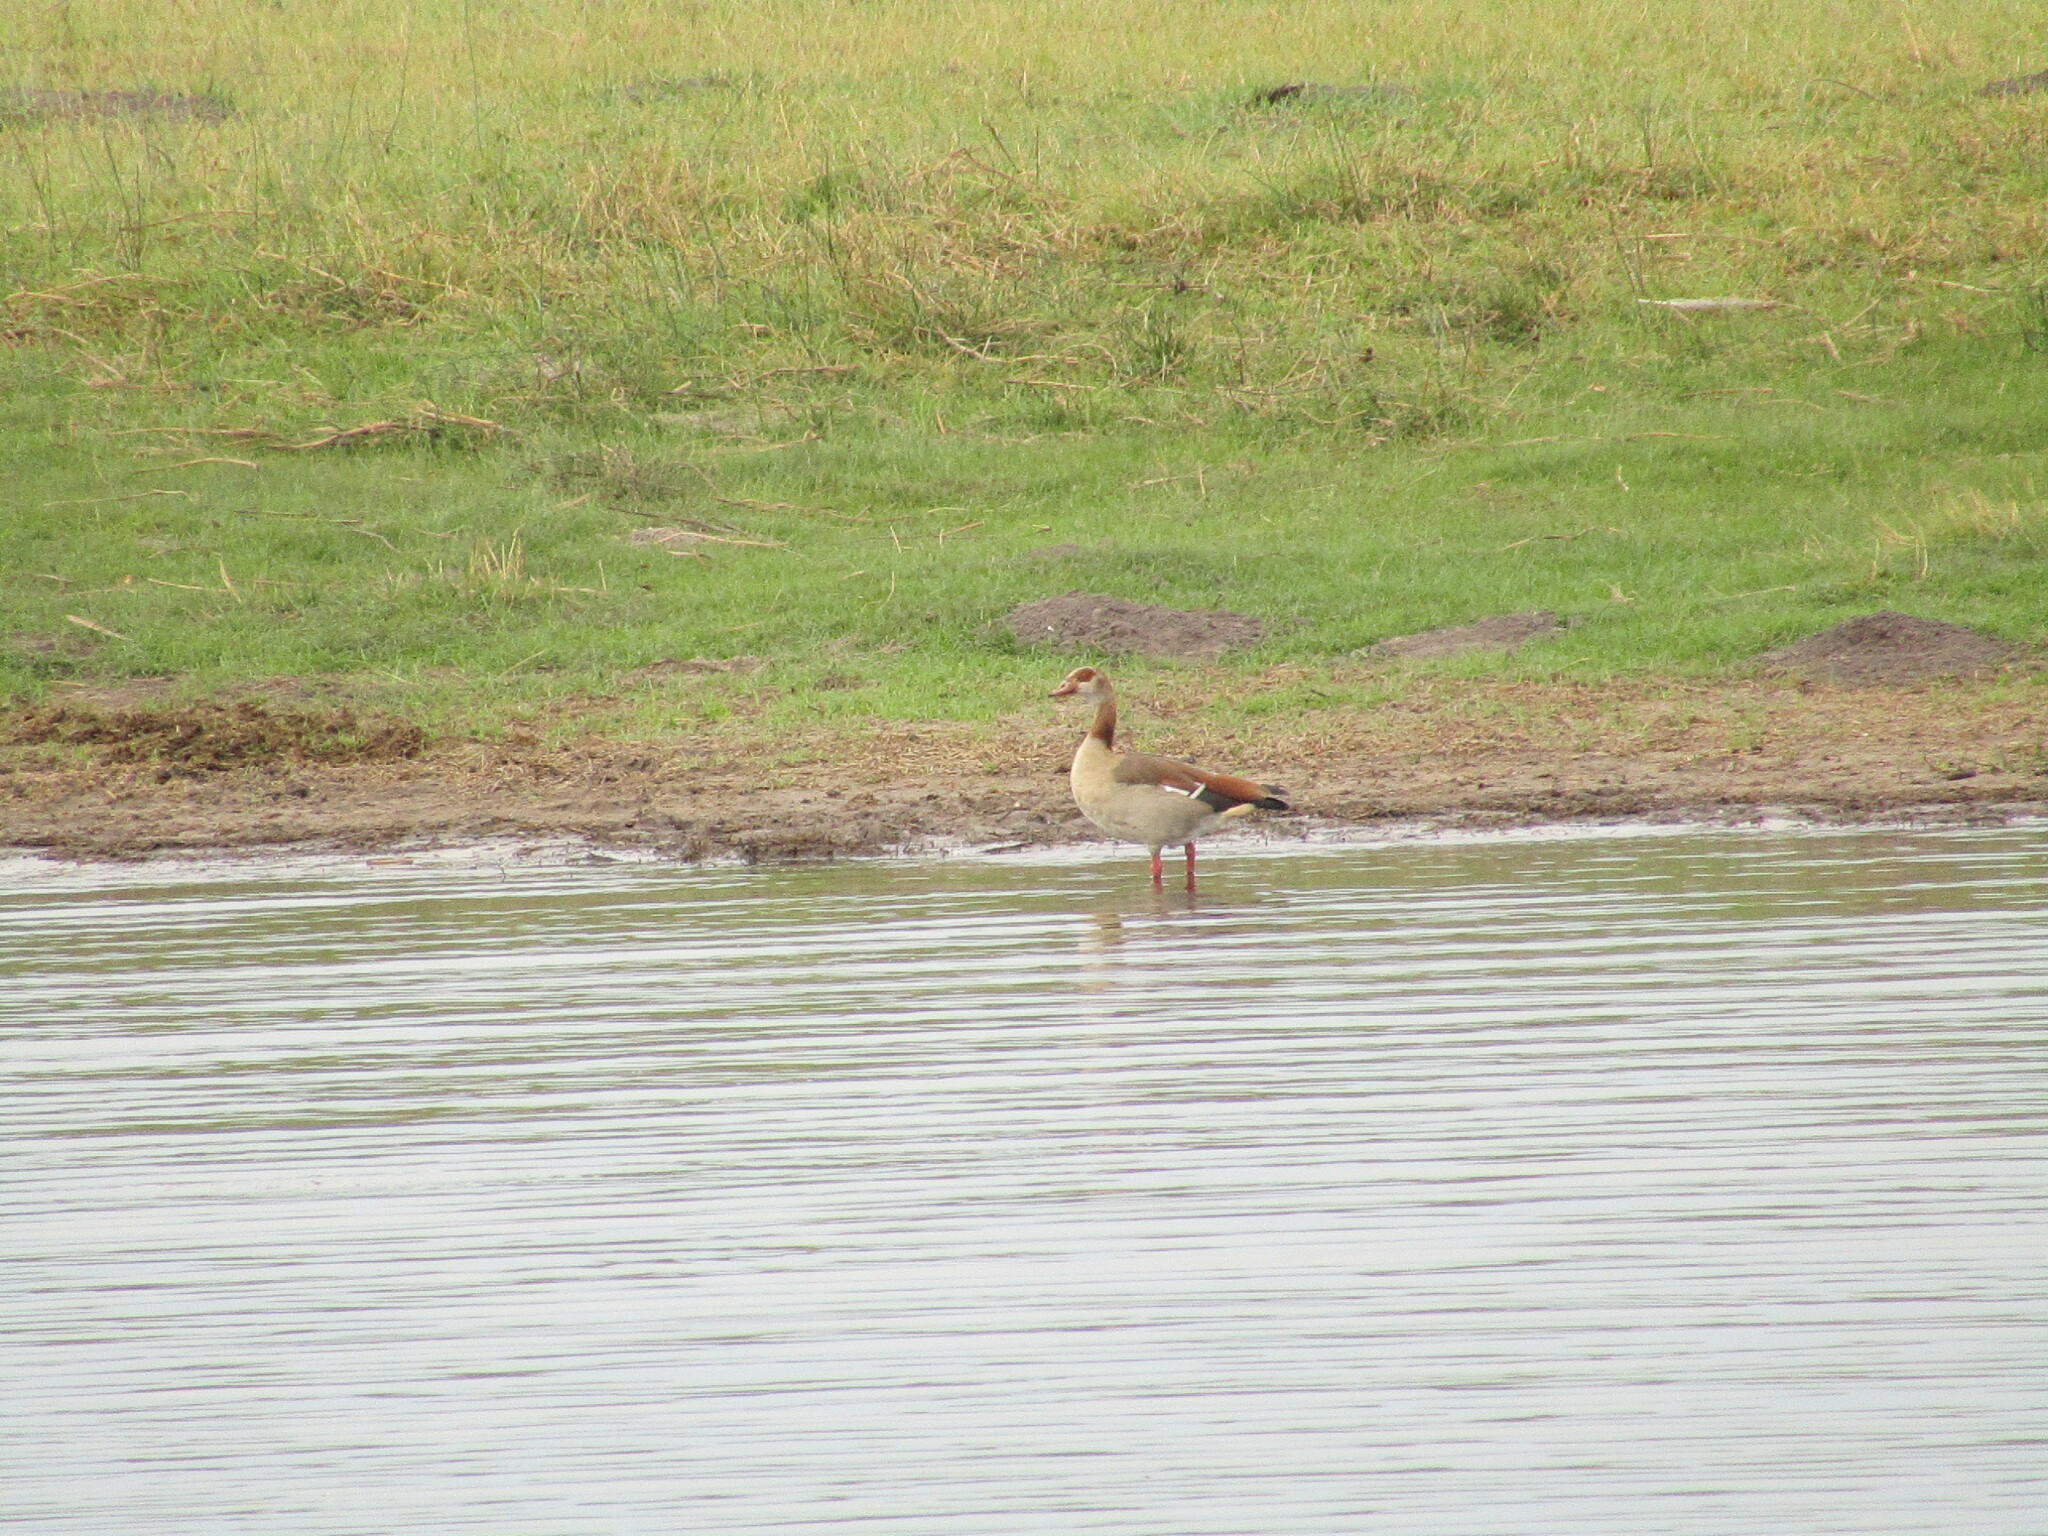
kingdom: Animalia
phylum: Chordata
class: Aves
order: Anseriformes
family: Anatidae
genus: Alopochen
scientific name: Alopochen aegyptiaca
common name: Egyptian goose
